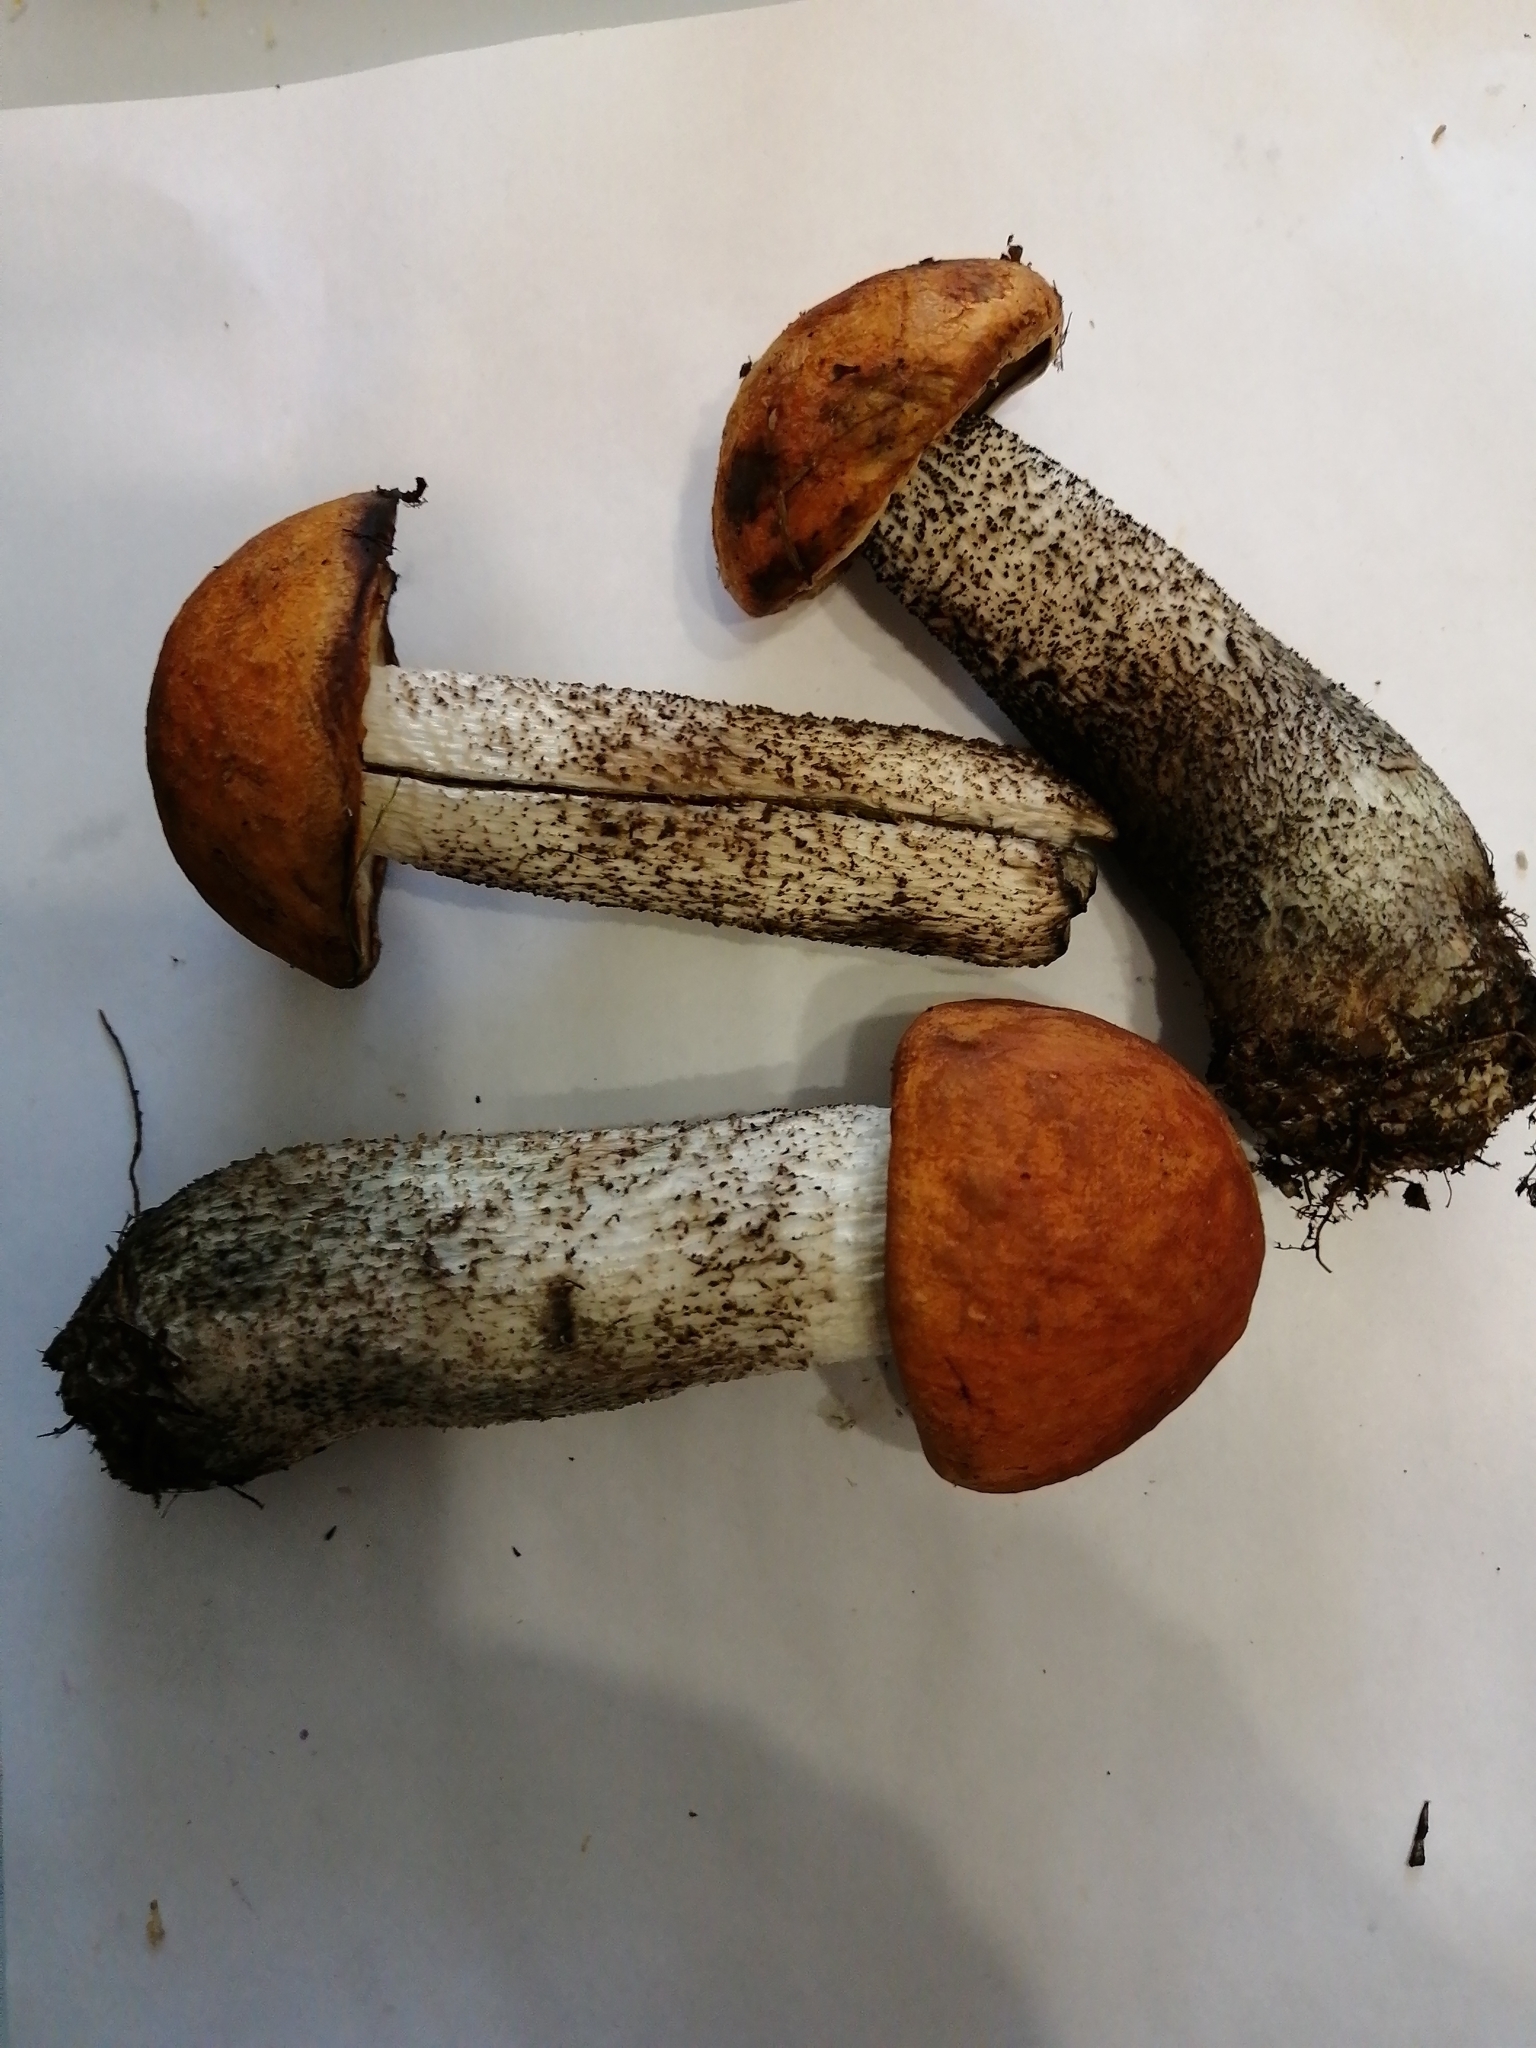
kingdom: Fungi
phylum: Basidiomycota
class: Agaricomycetes
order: Boletales
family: Boletaceae
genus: Leccinum
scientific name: Leccinum versipelle
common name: Orange birch bolete
